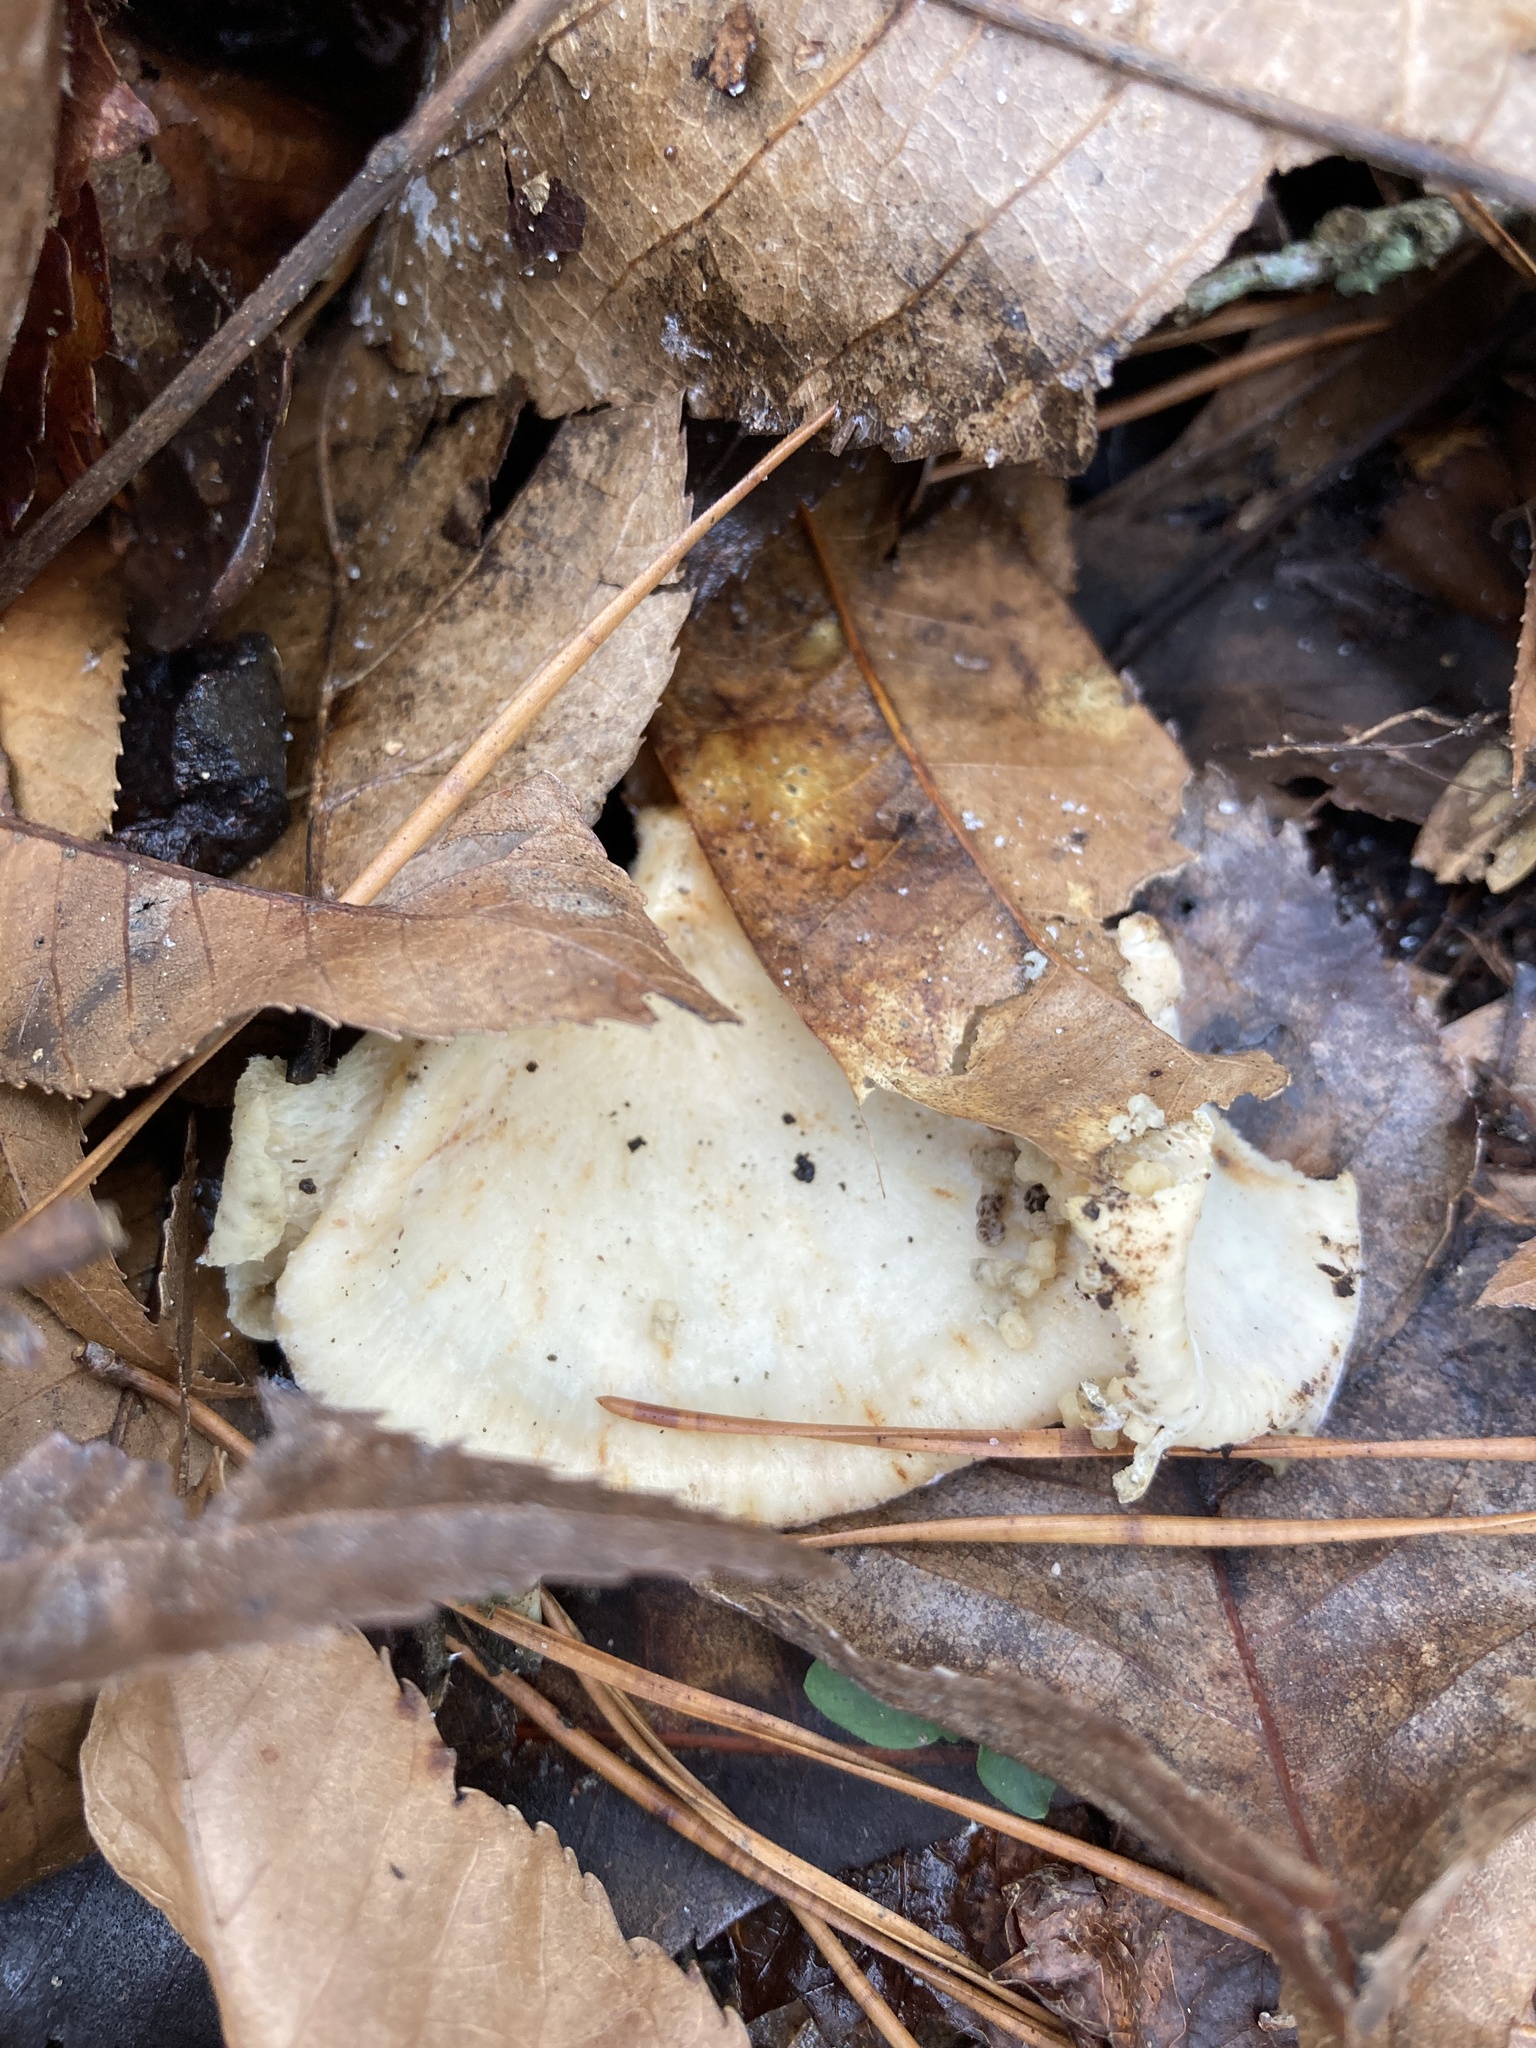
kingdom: Fungi
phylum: Basidiomycota
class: Agaricomycetes
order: Polyporales
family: Polyporaceae
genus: Favolus
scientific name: Favolus tenuiculus
